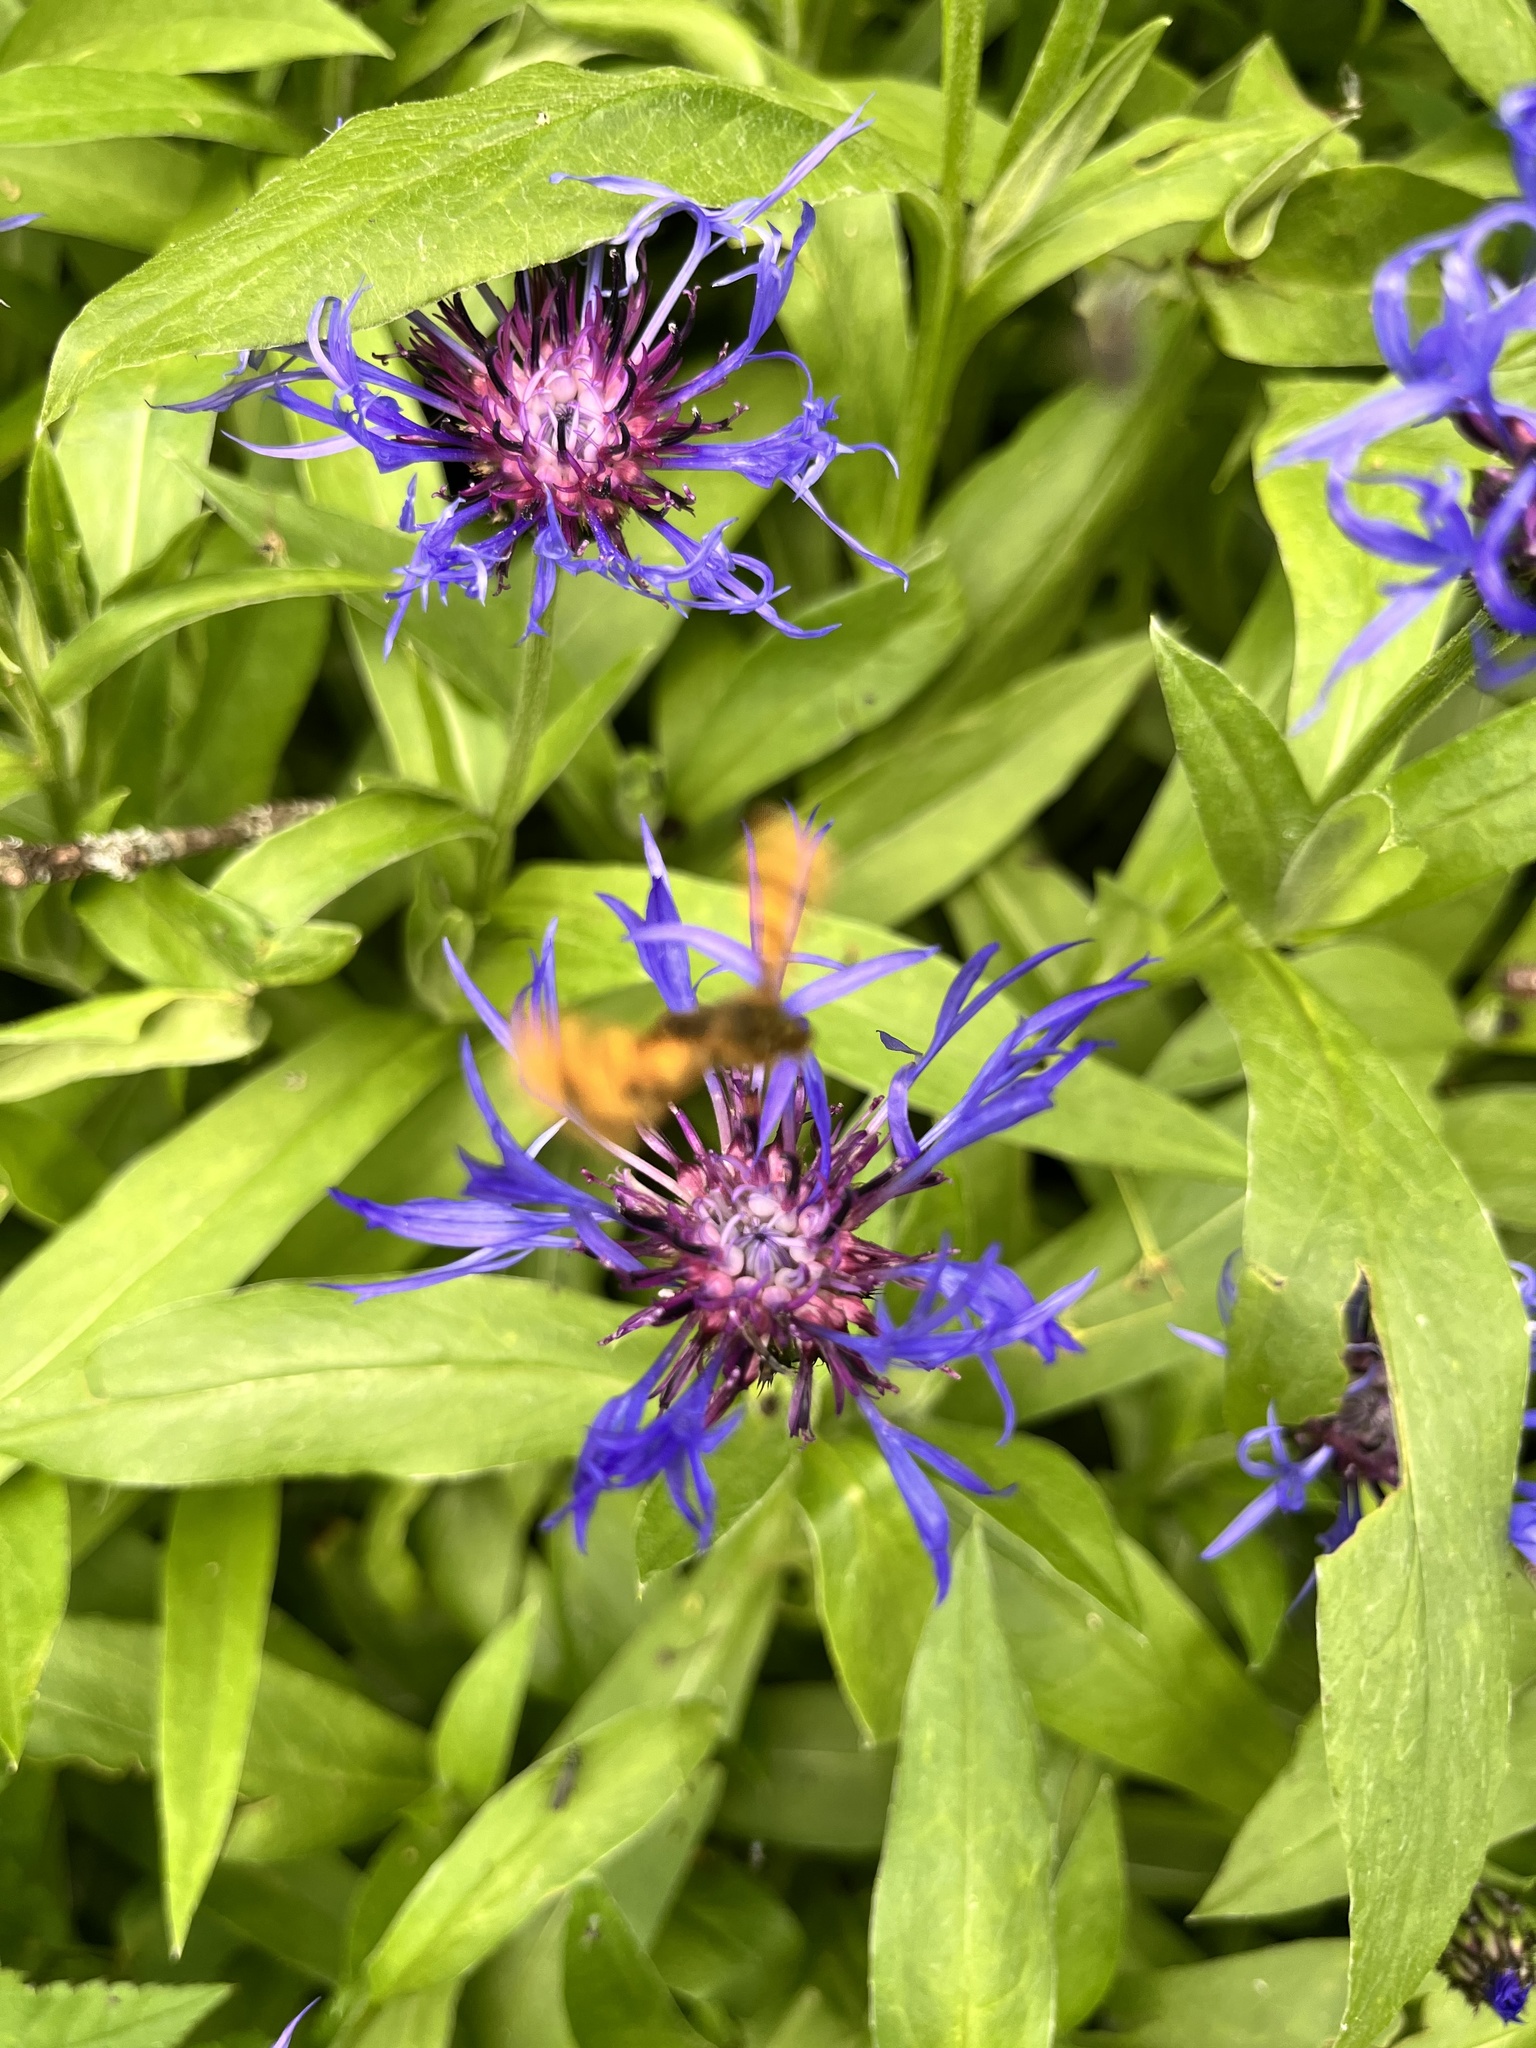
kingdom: Plantae
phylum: Tracheophyta
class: Magnoliopsida
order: Asterales
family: Asteraceae
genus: Centaurea
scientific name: Centaurea montana
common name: Perennial cornflower
